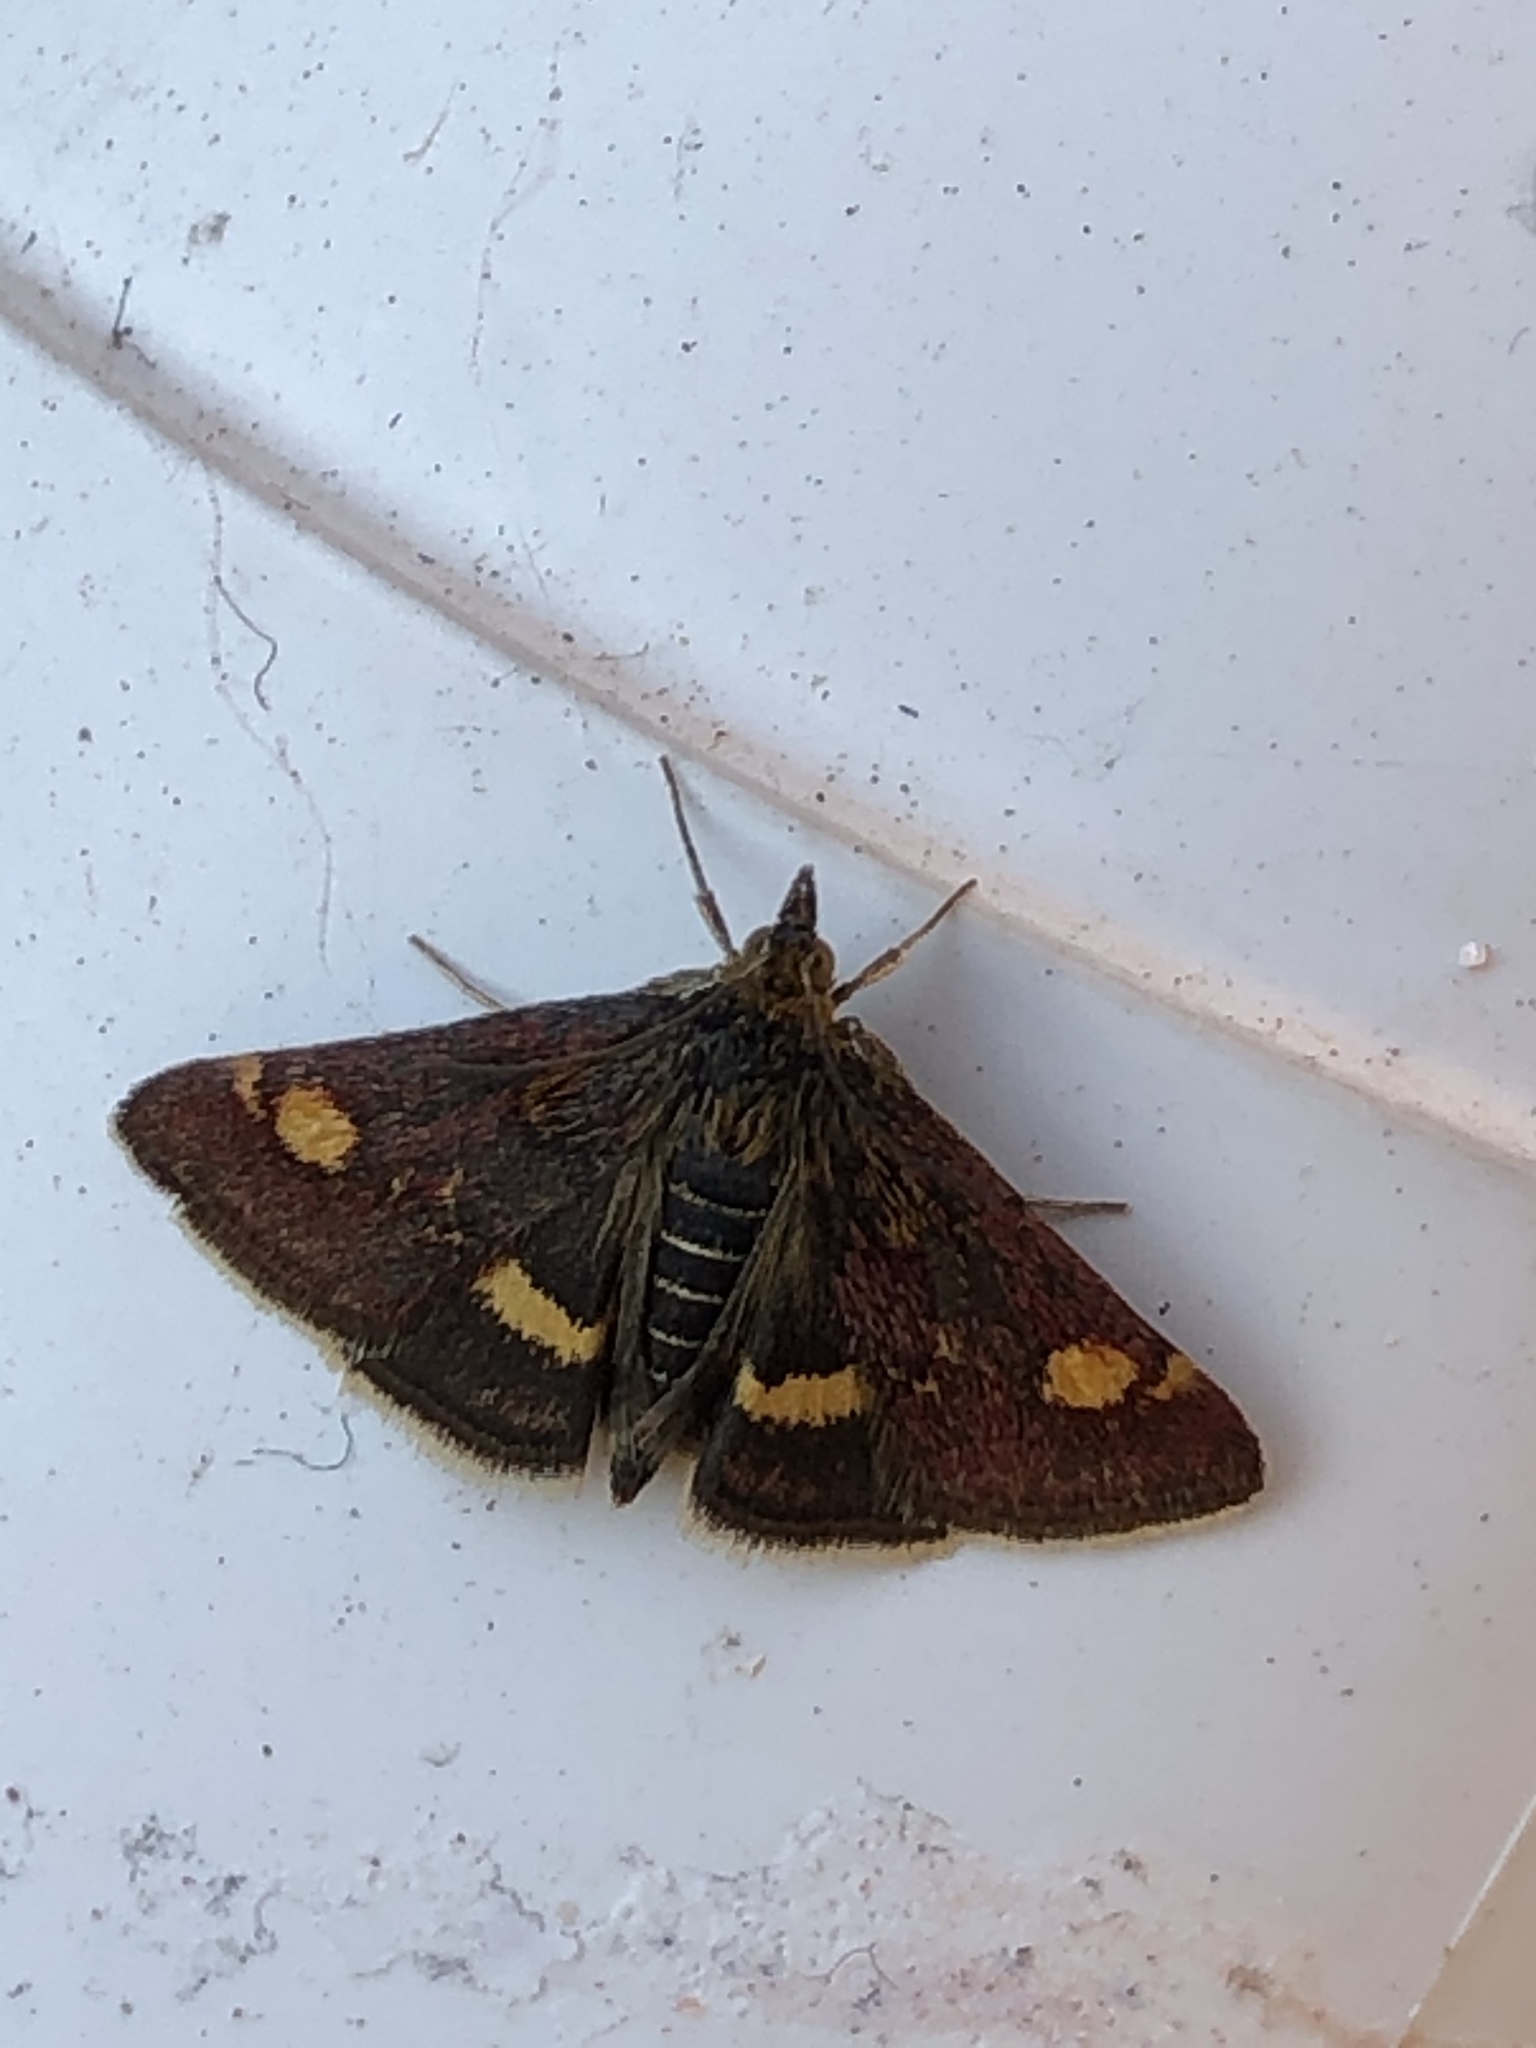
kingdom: Animalia
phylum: Arthropoda
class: Insecta
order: Lepidoptera
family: Crambidae
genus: Pyrausta
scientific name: Pyrausta aurata
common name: Small purple & gold
